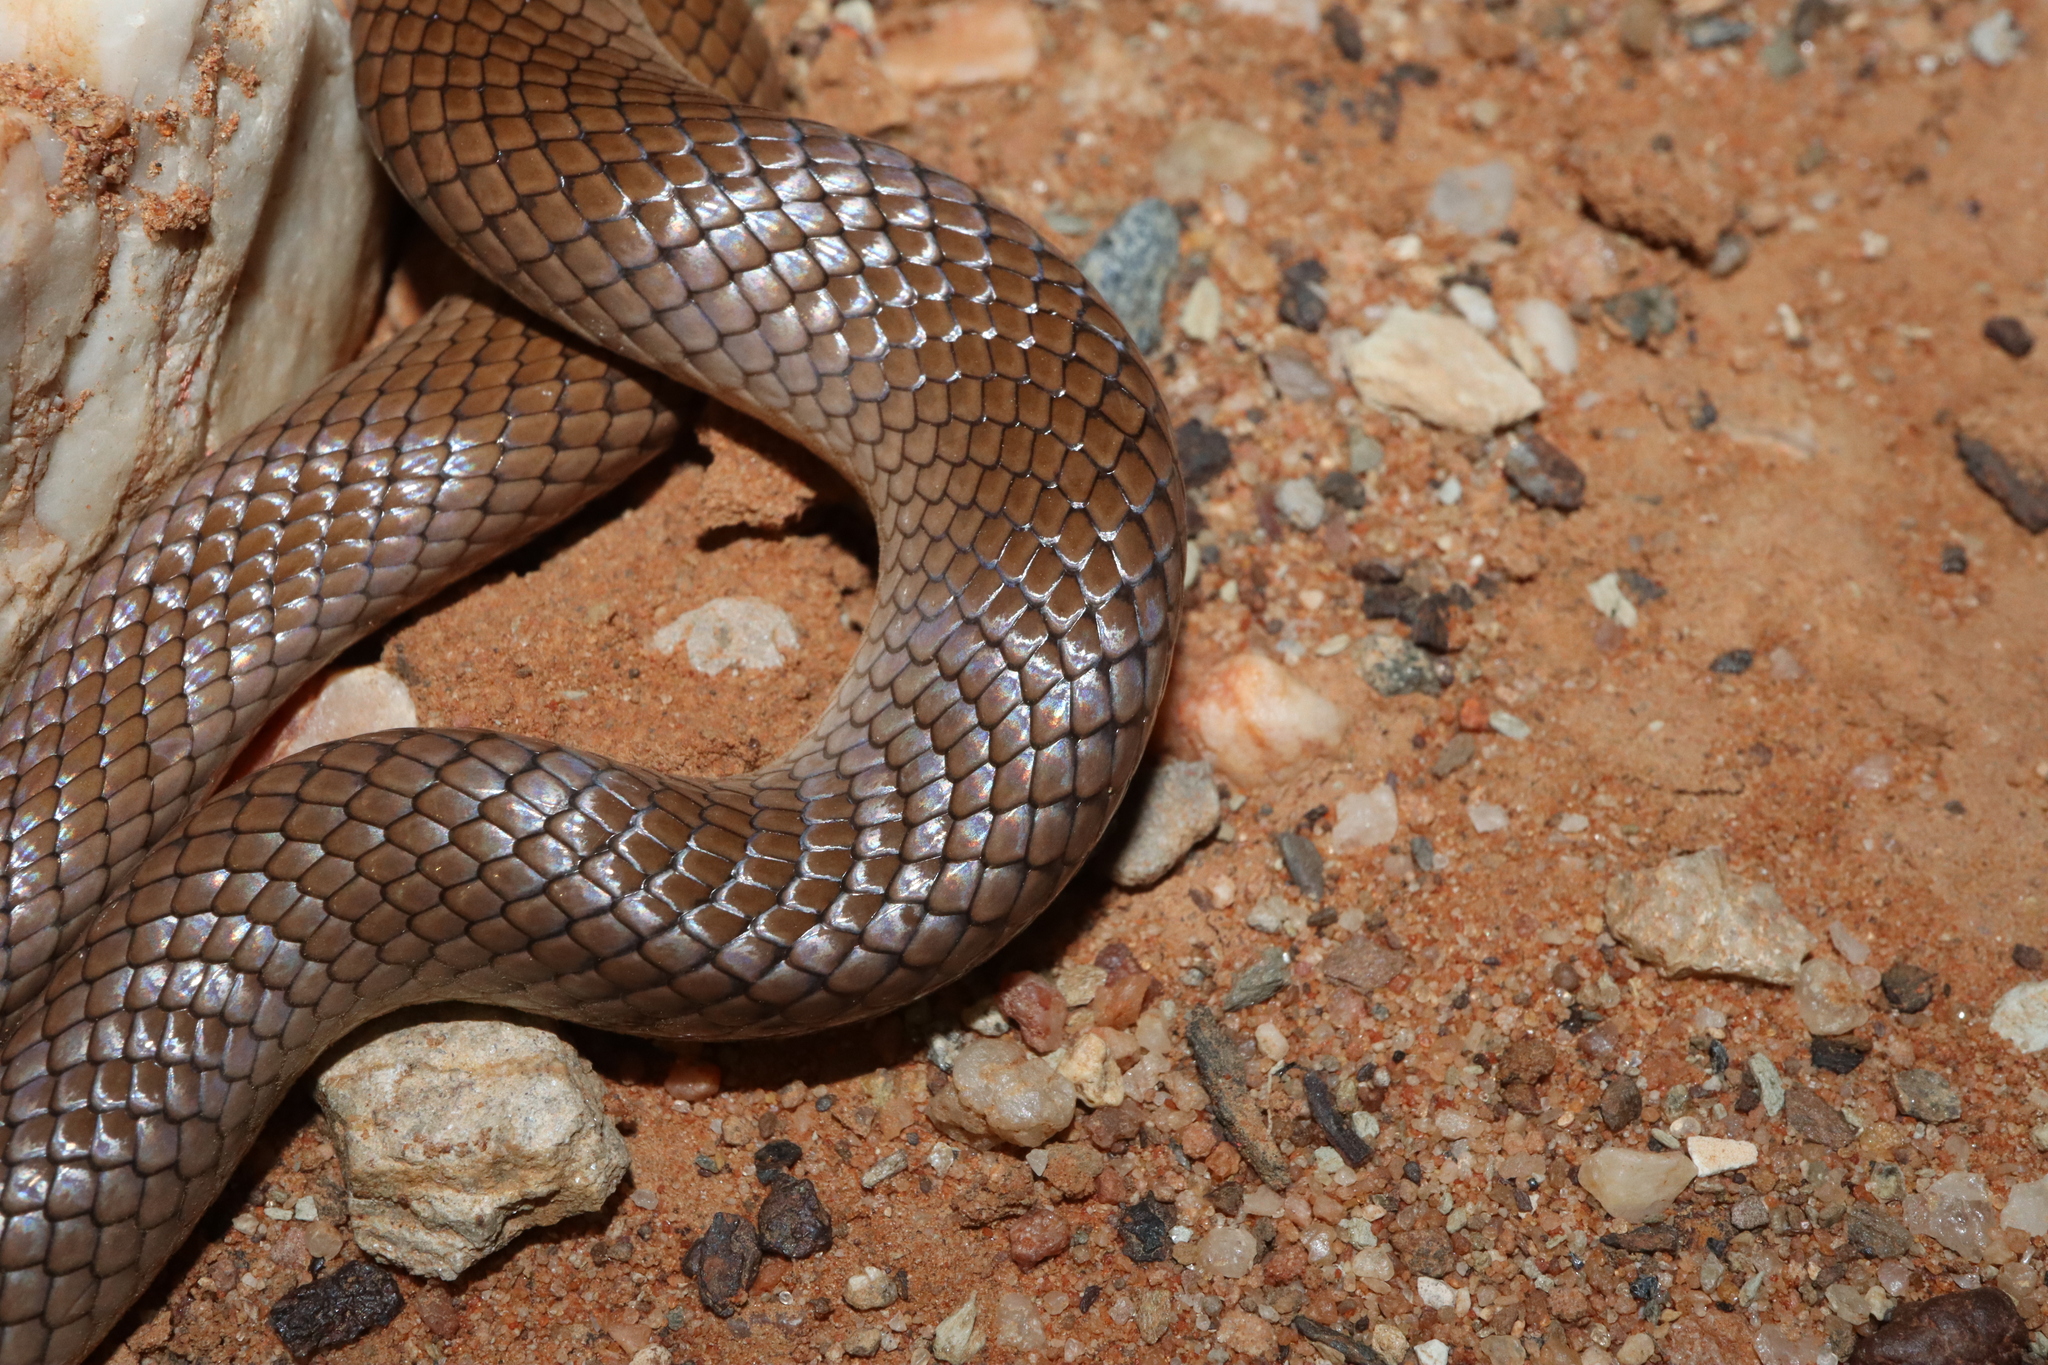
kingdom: Animalia
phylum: Chordata
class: Squamata
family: Elapidae
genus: Suta
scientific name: Suta suta
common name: Curl snake
